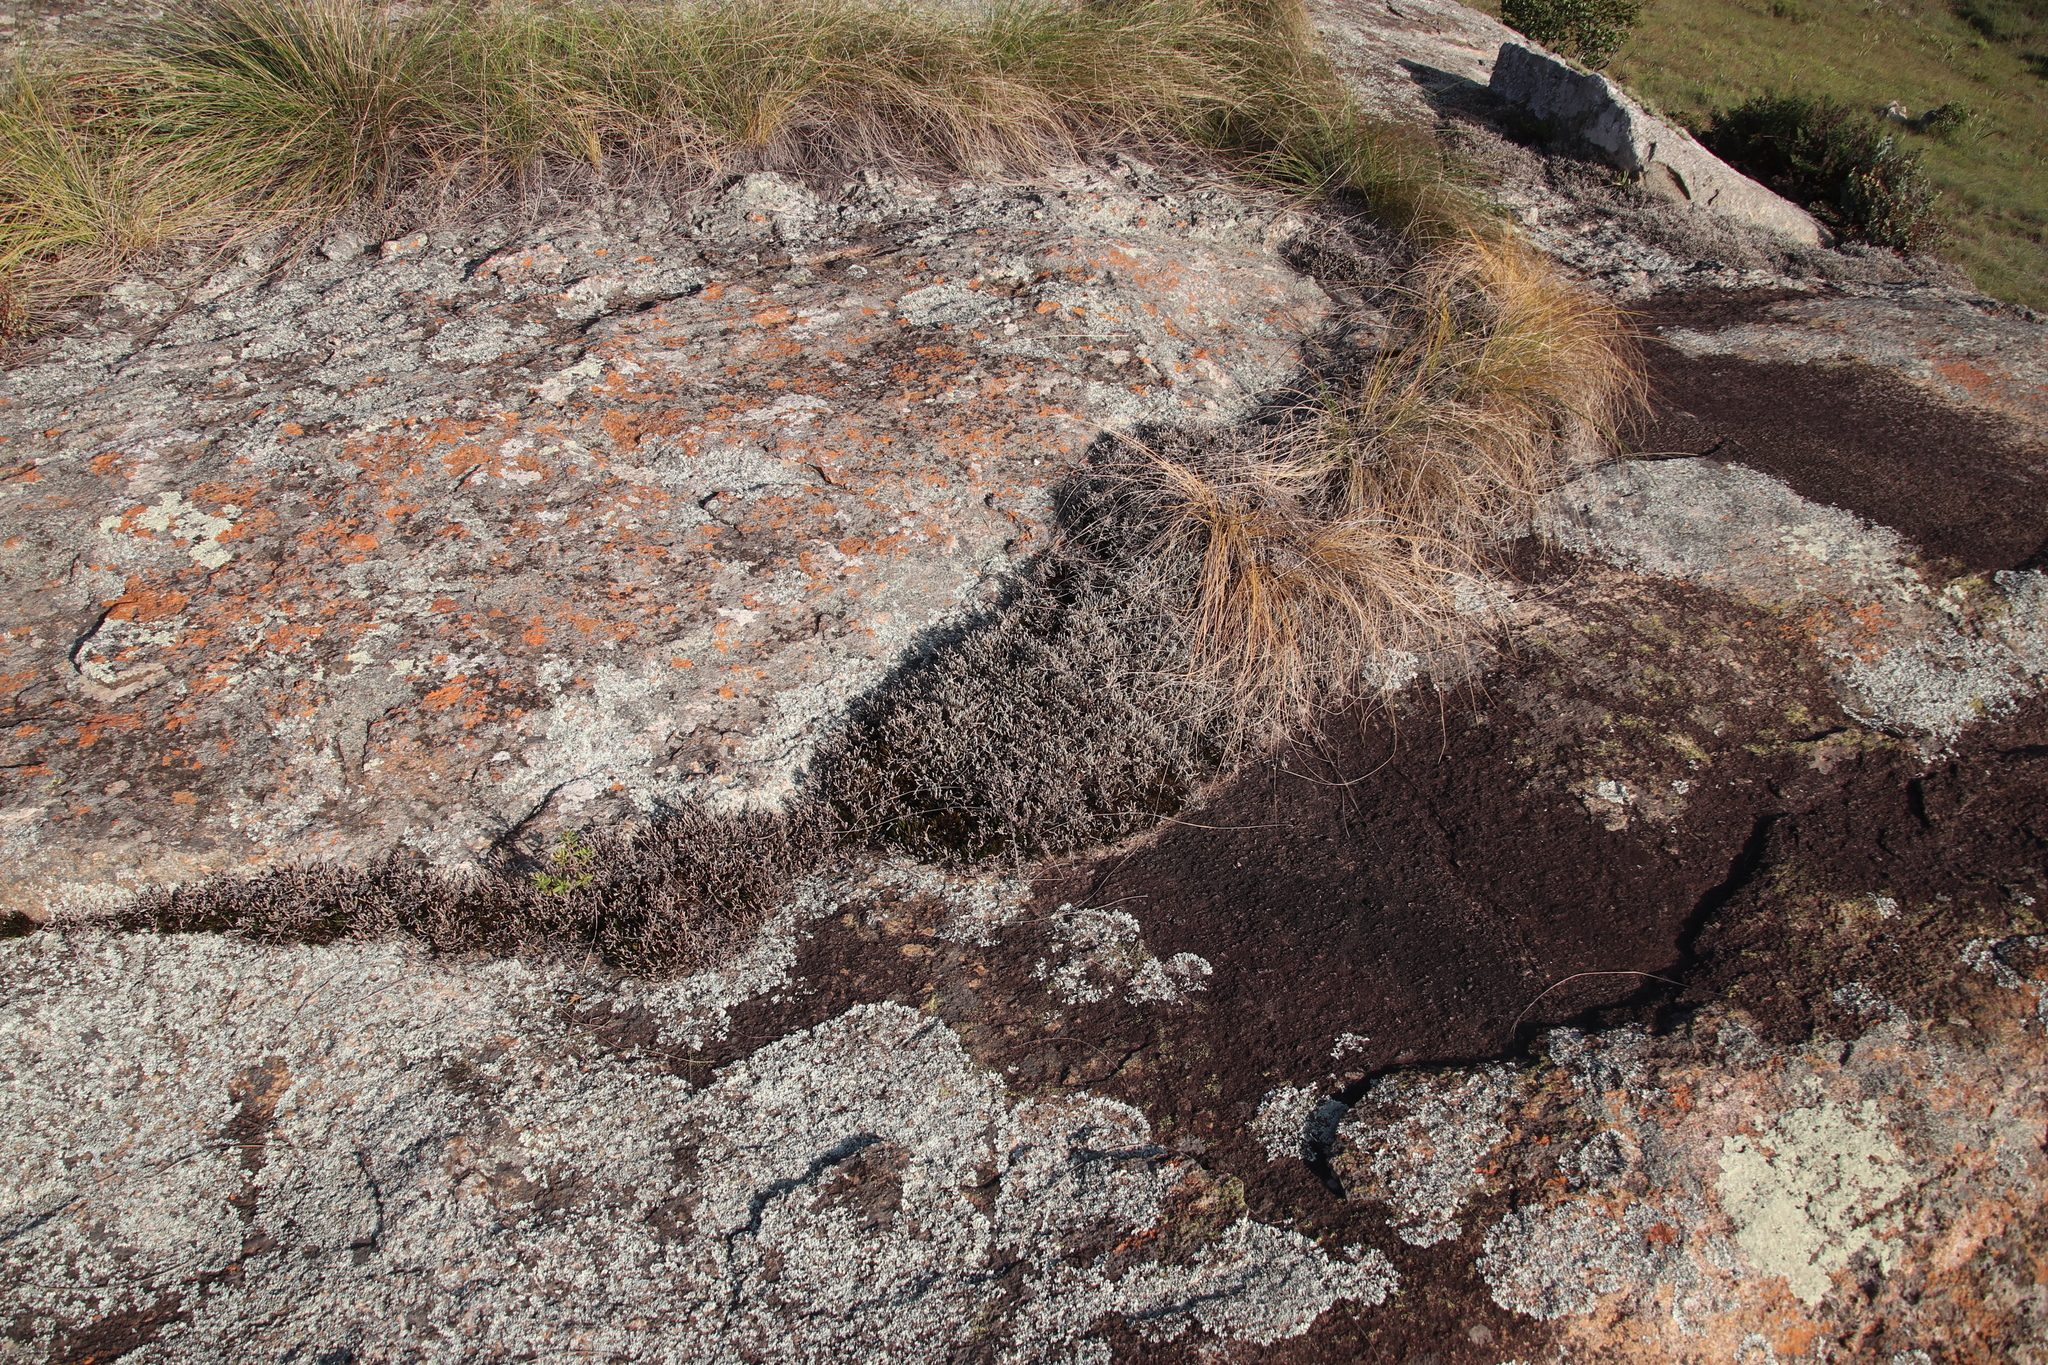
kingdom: Plantae
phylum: Tracheophyta
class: Lycopodiopsida
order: Selaginellales
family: Selaginellaceae
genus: Selaginella
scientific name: Selaginella dregei
